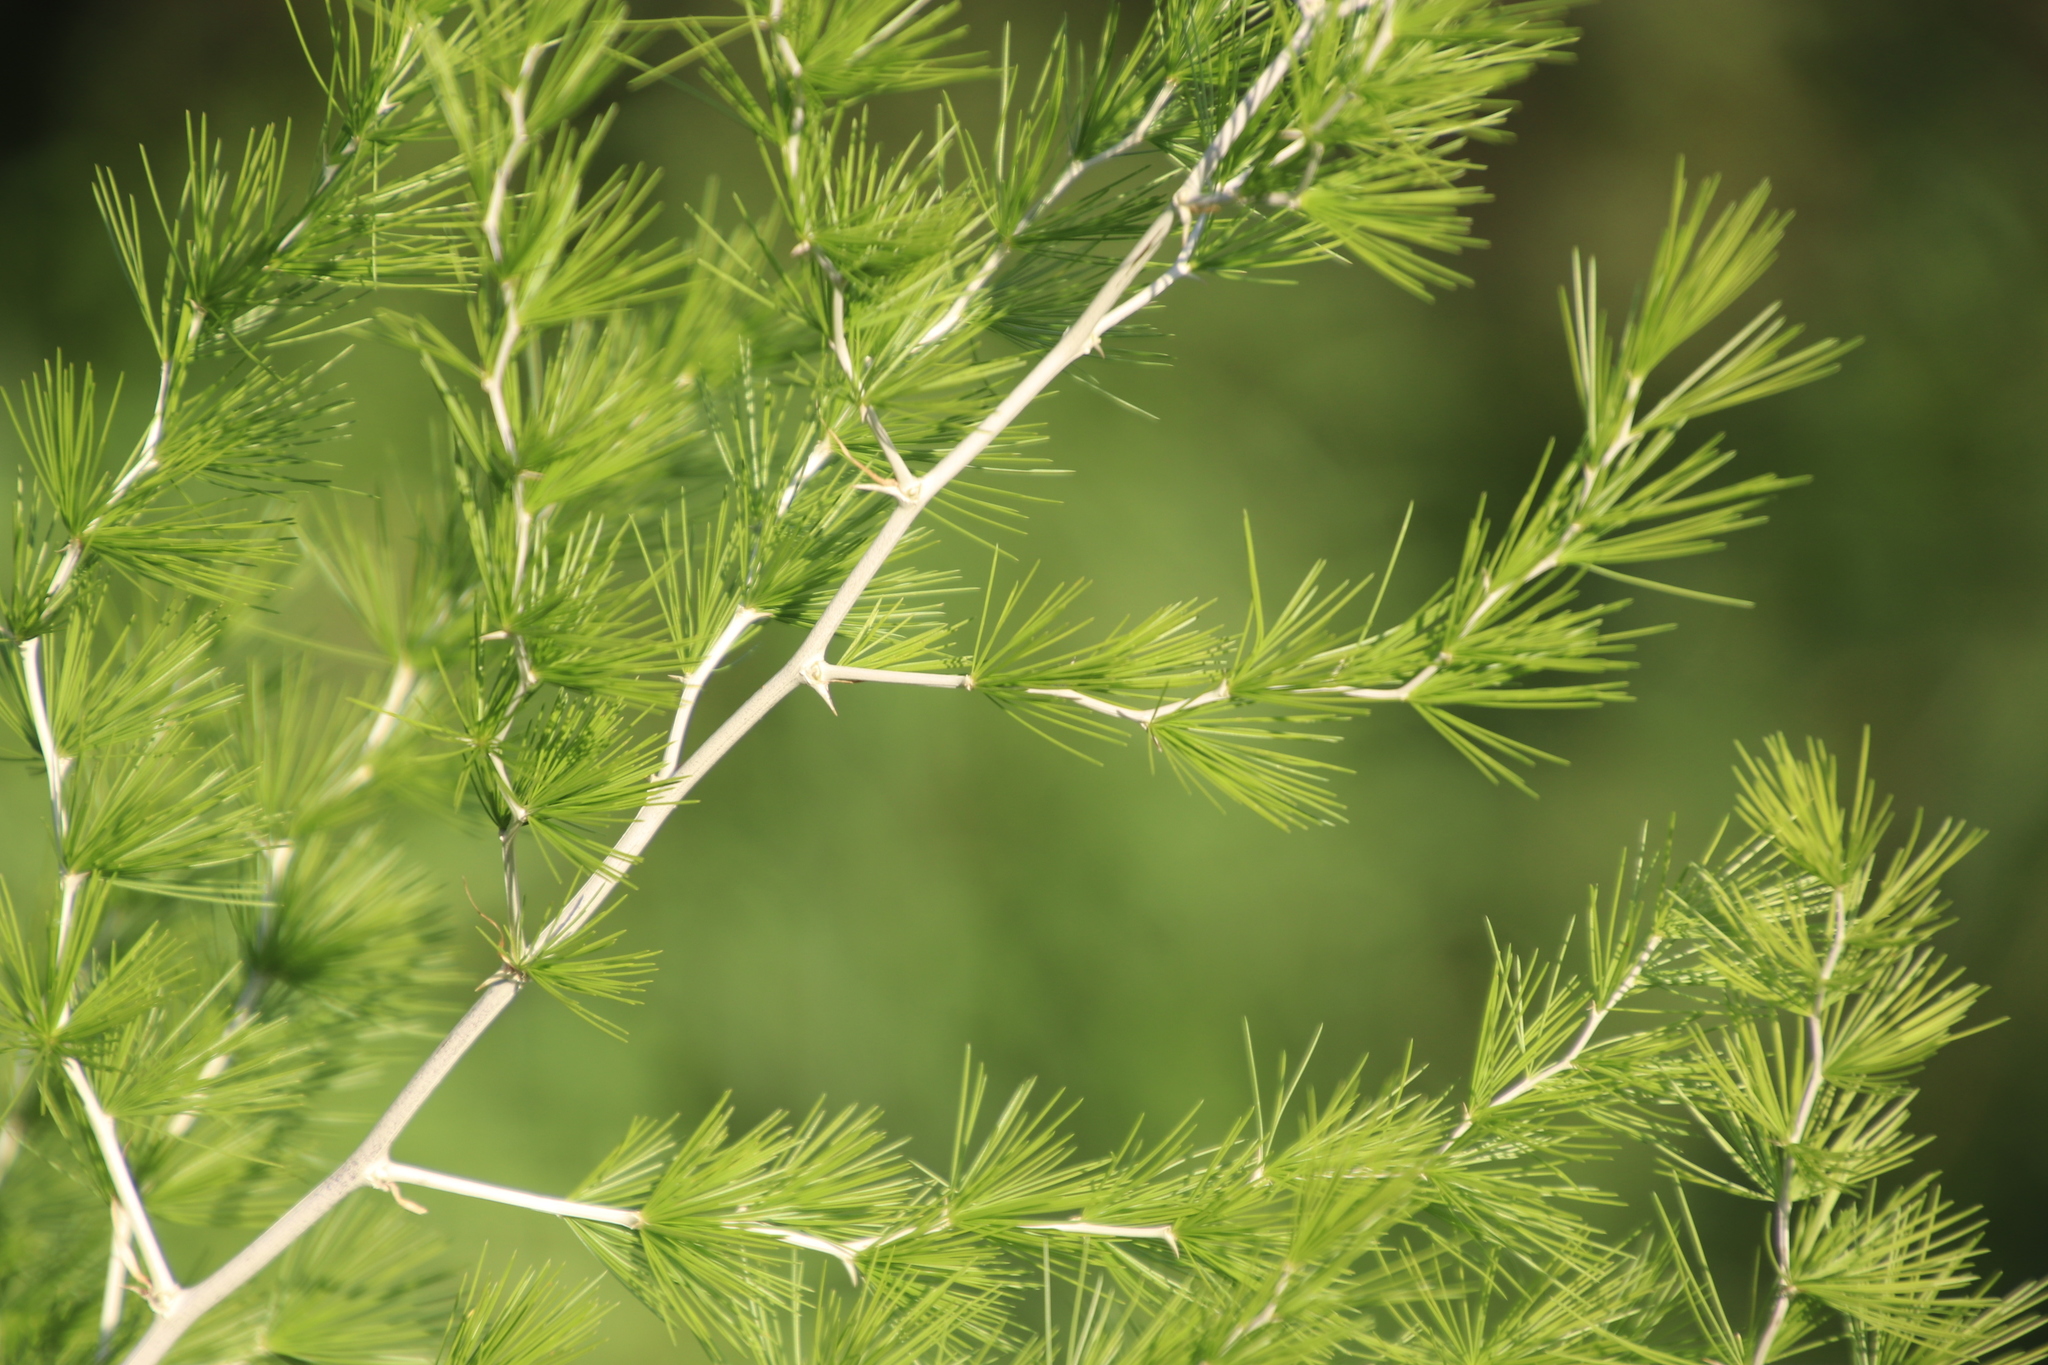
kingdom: Plantae
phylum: Tracheophyta
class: Liliopsida
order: Asparagales
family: Asparagaceae
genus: Asparagus
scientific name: Asparagus laricinus
